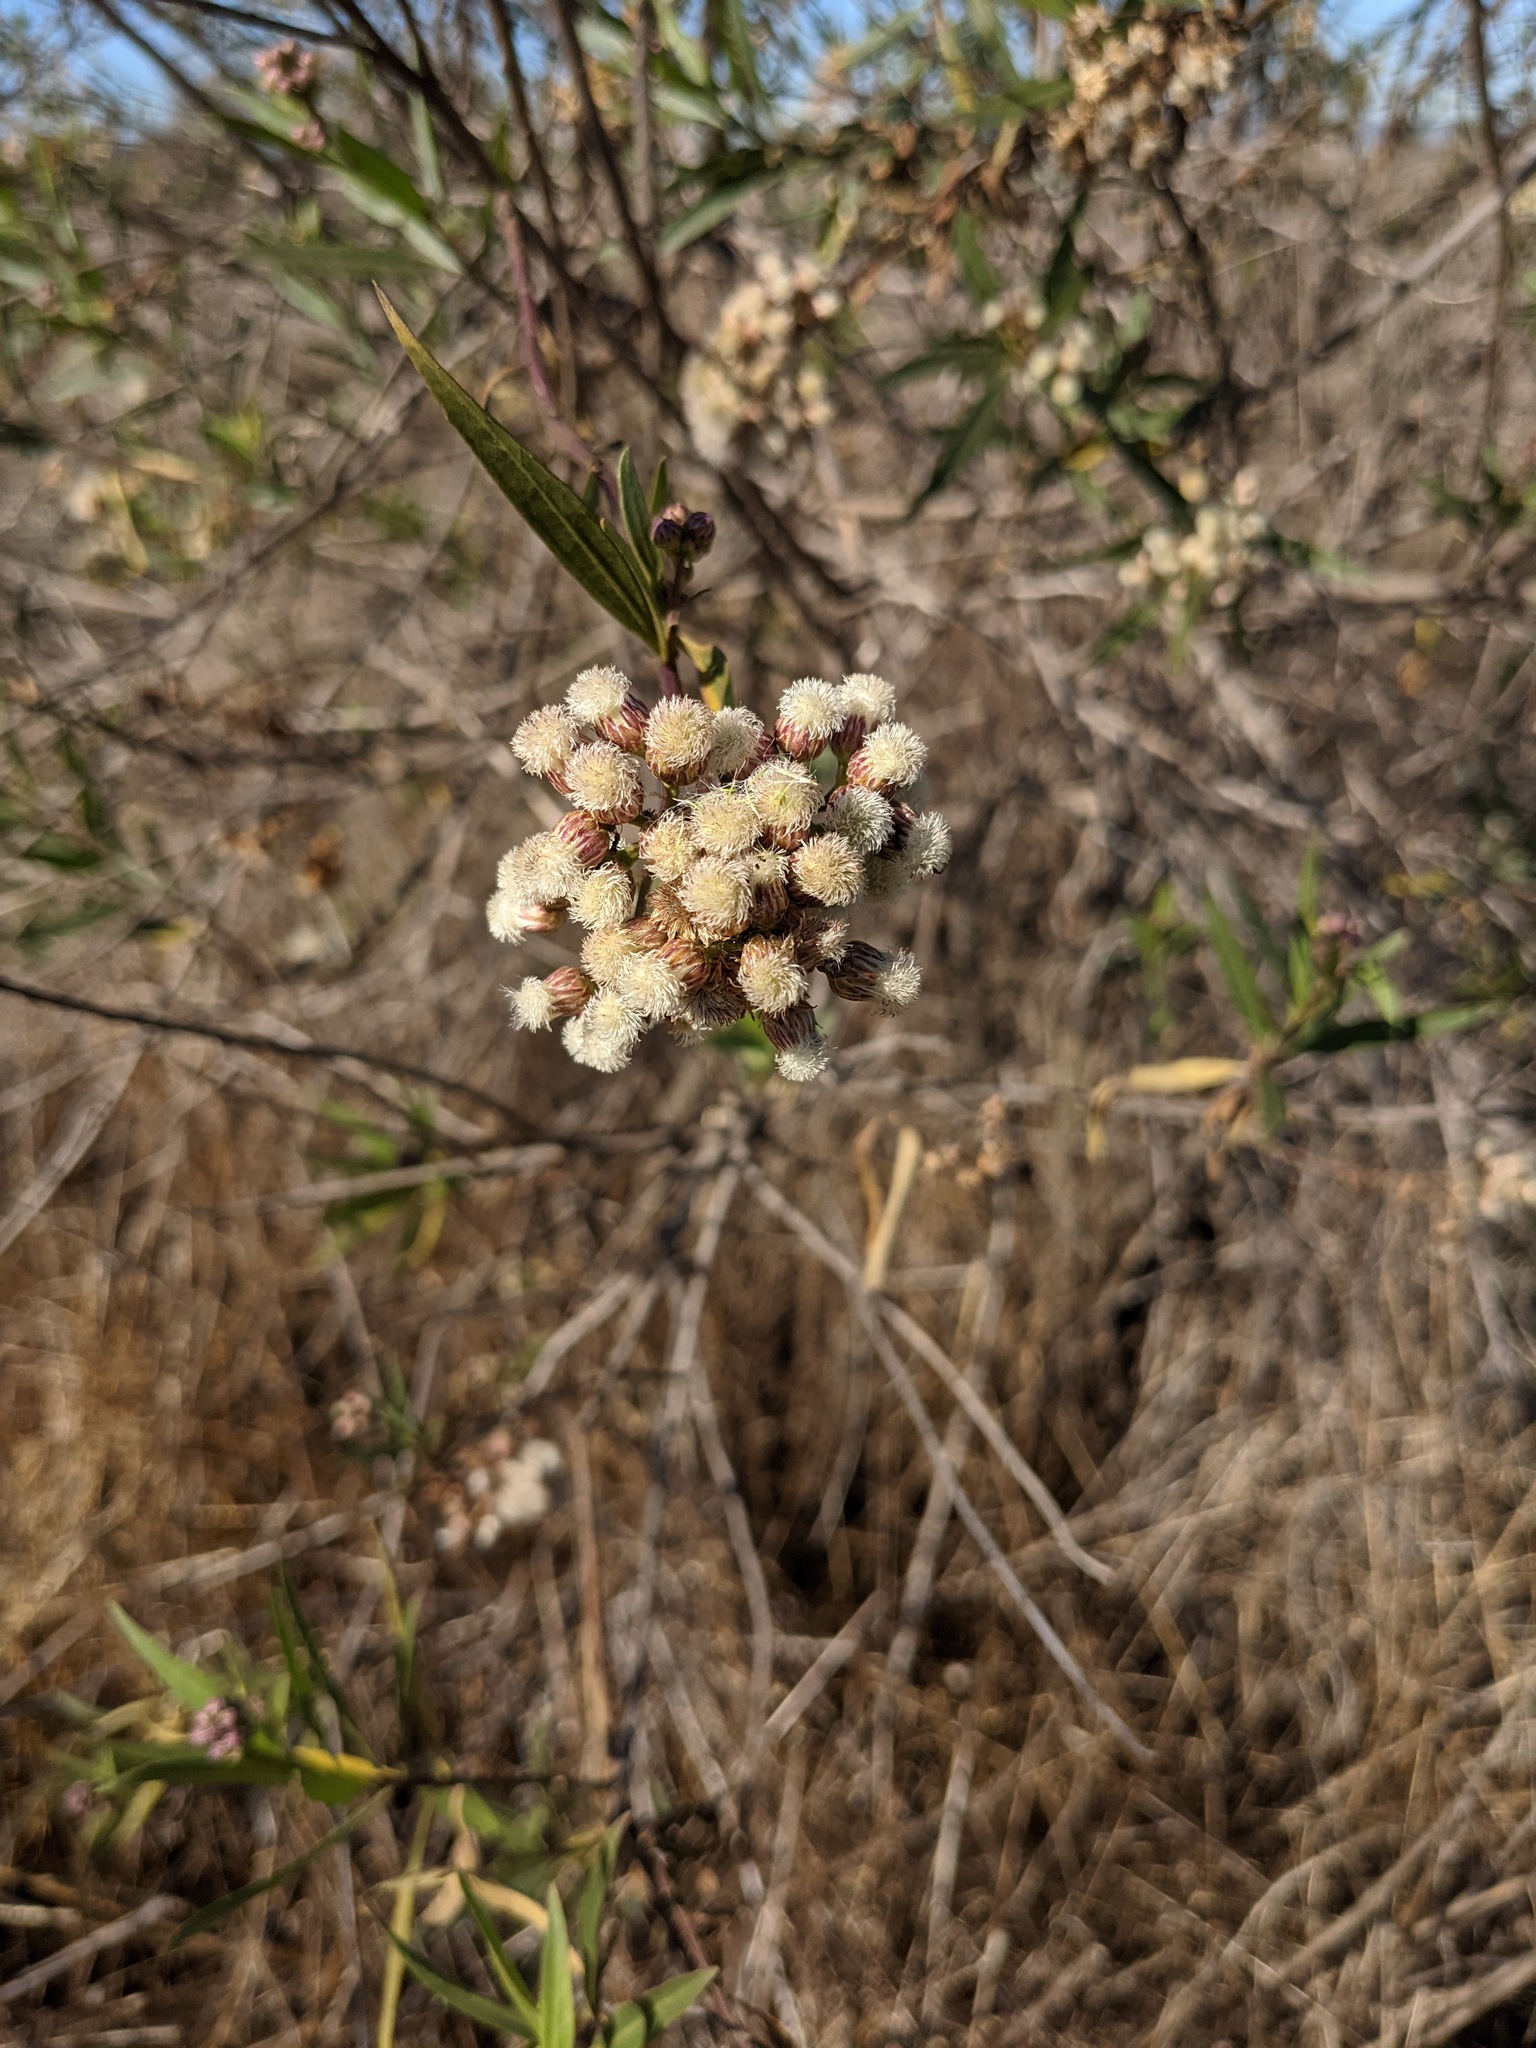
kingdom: Plantae
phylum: Tracheophyta
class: Magnoliopsida
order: Asterales
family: Asteraceae
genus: Baccharis
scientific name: Baccharis salicifolia
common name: Sticky baccharis
